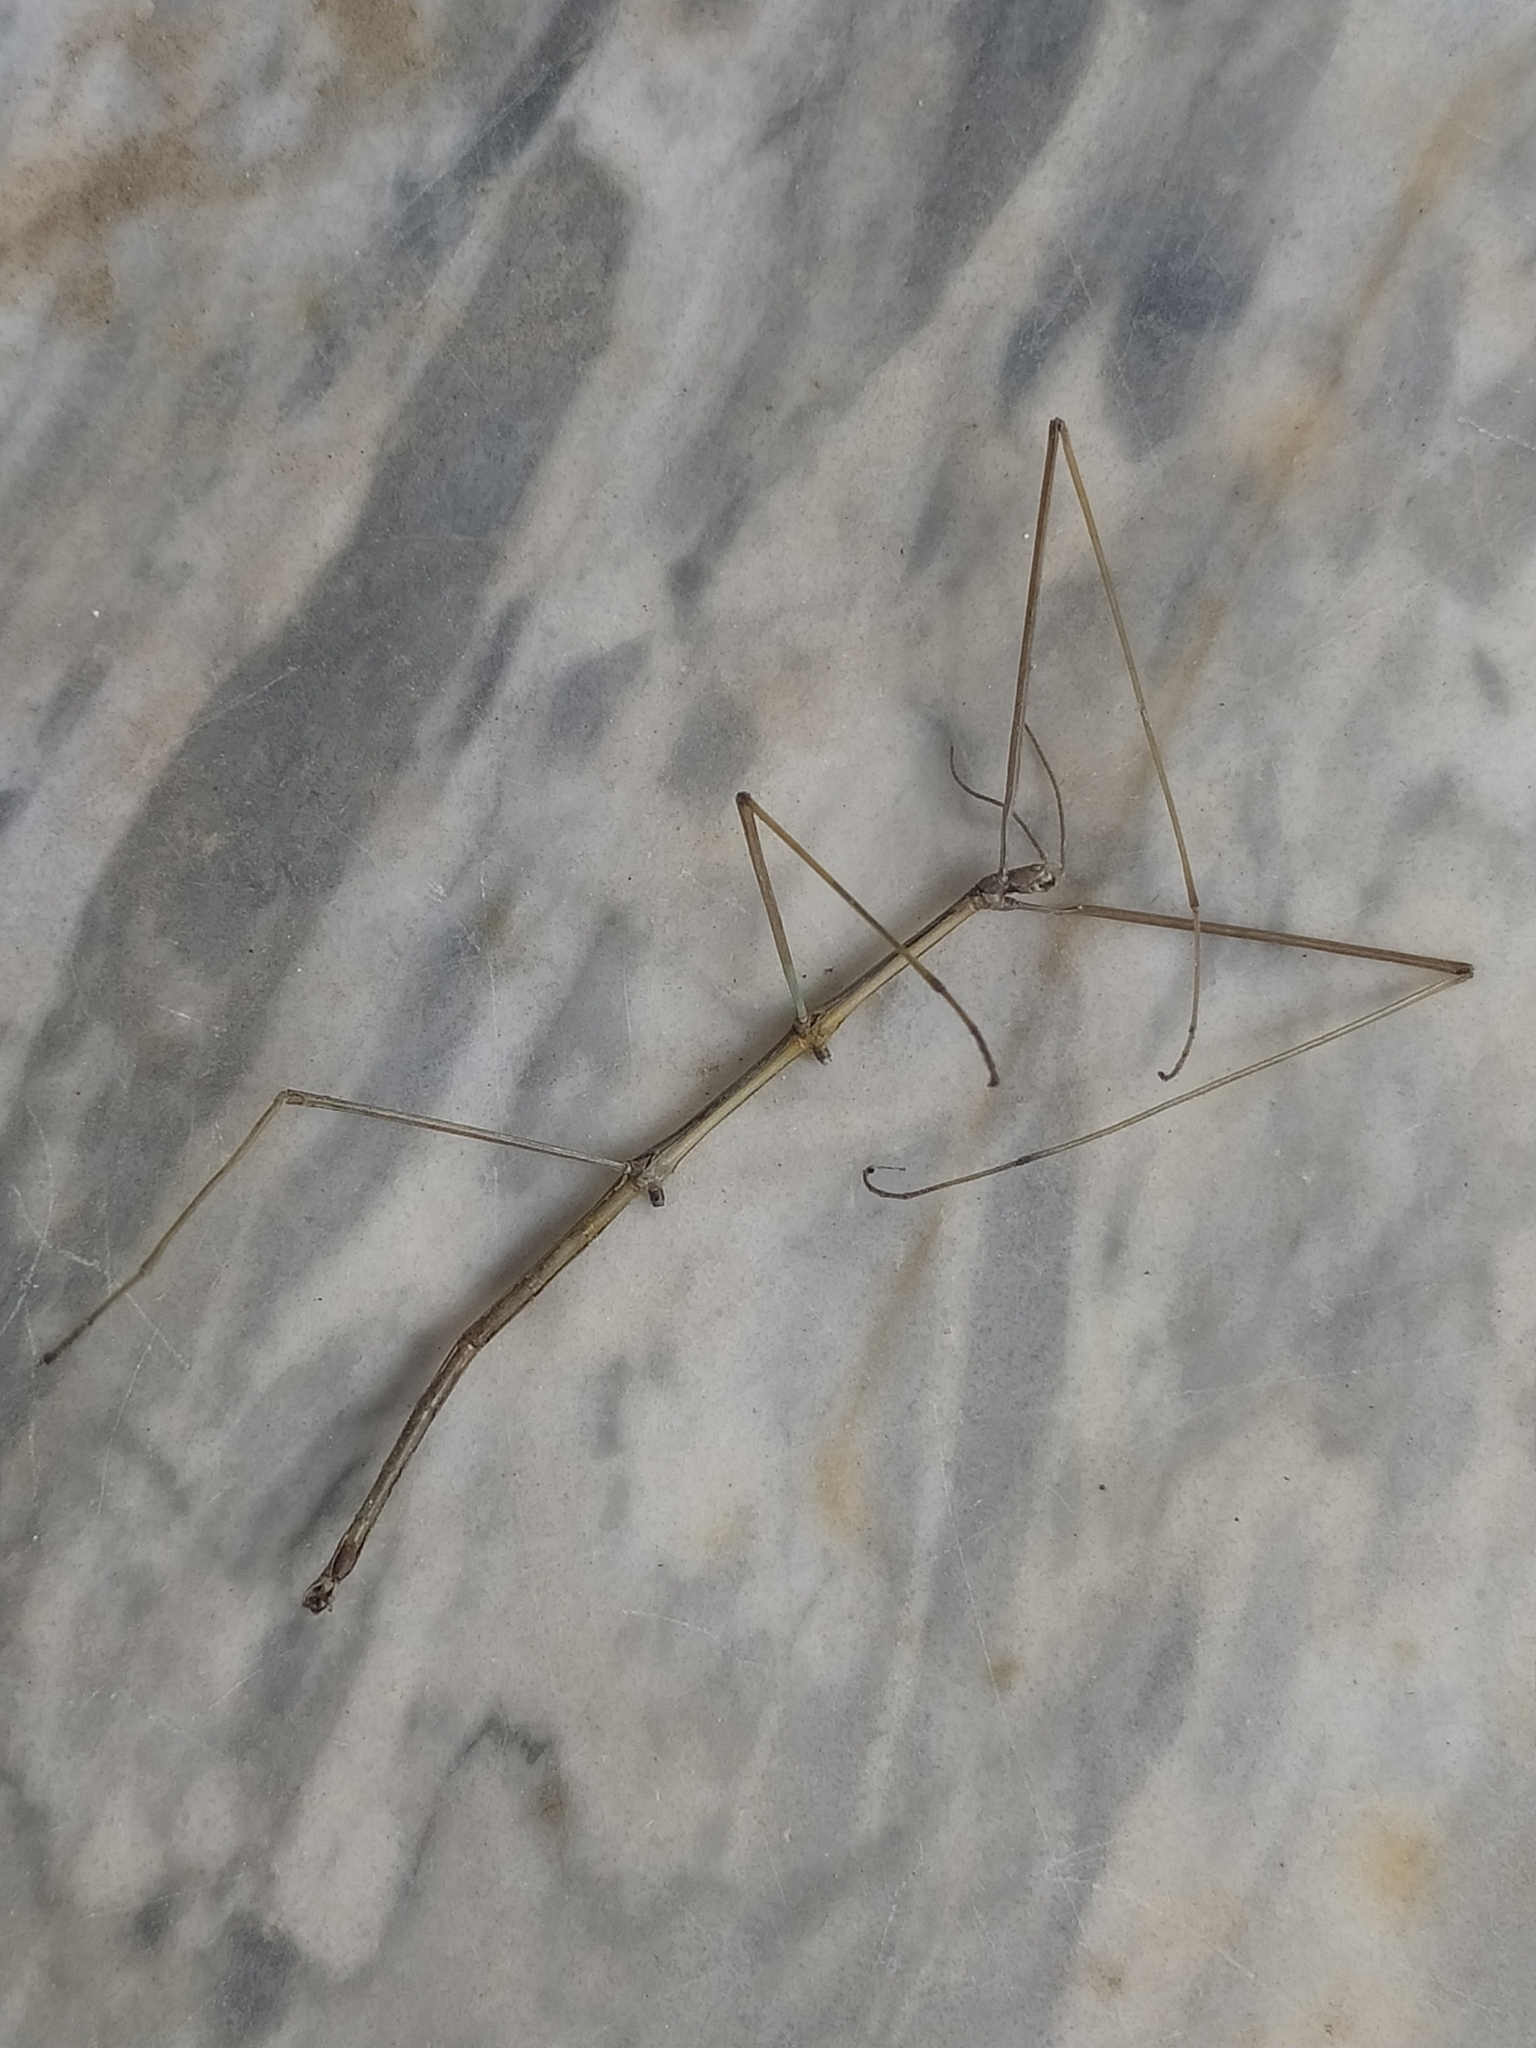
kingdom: Animalia
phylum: Arthropoda
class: Insecta
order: Phasmida
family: Bacillidae
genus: Bacillus
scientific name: Bacillus rossius
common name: Corsican stick-insect
